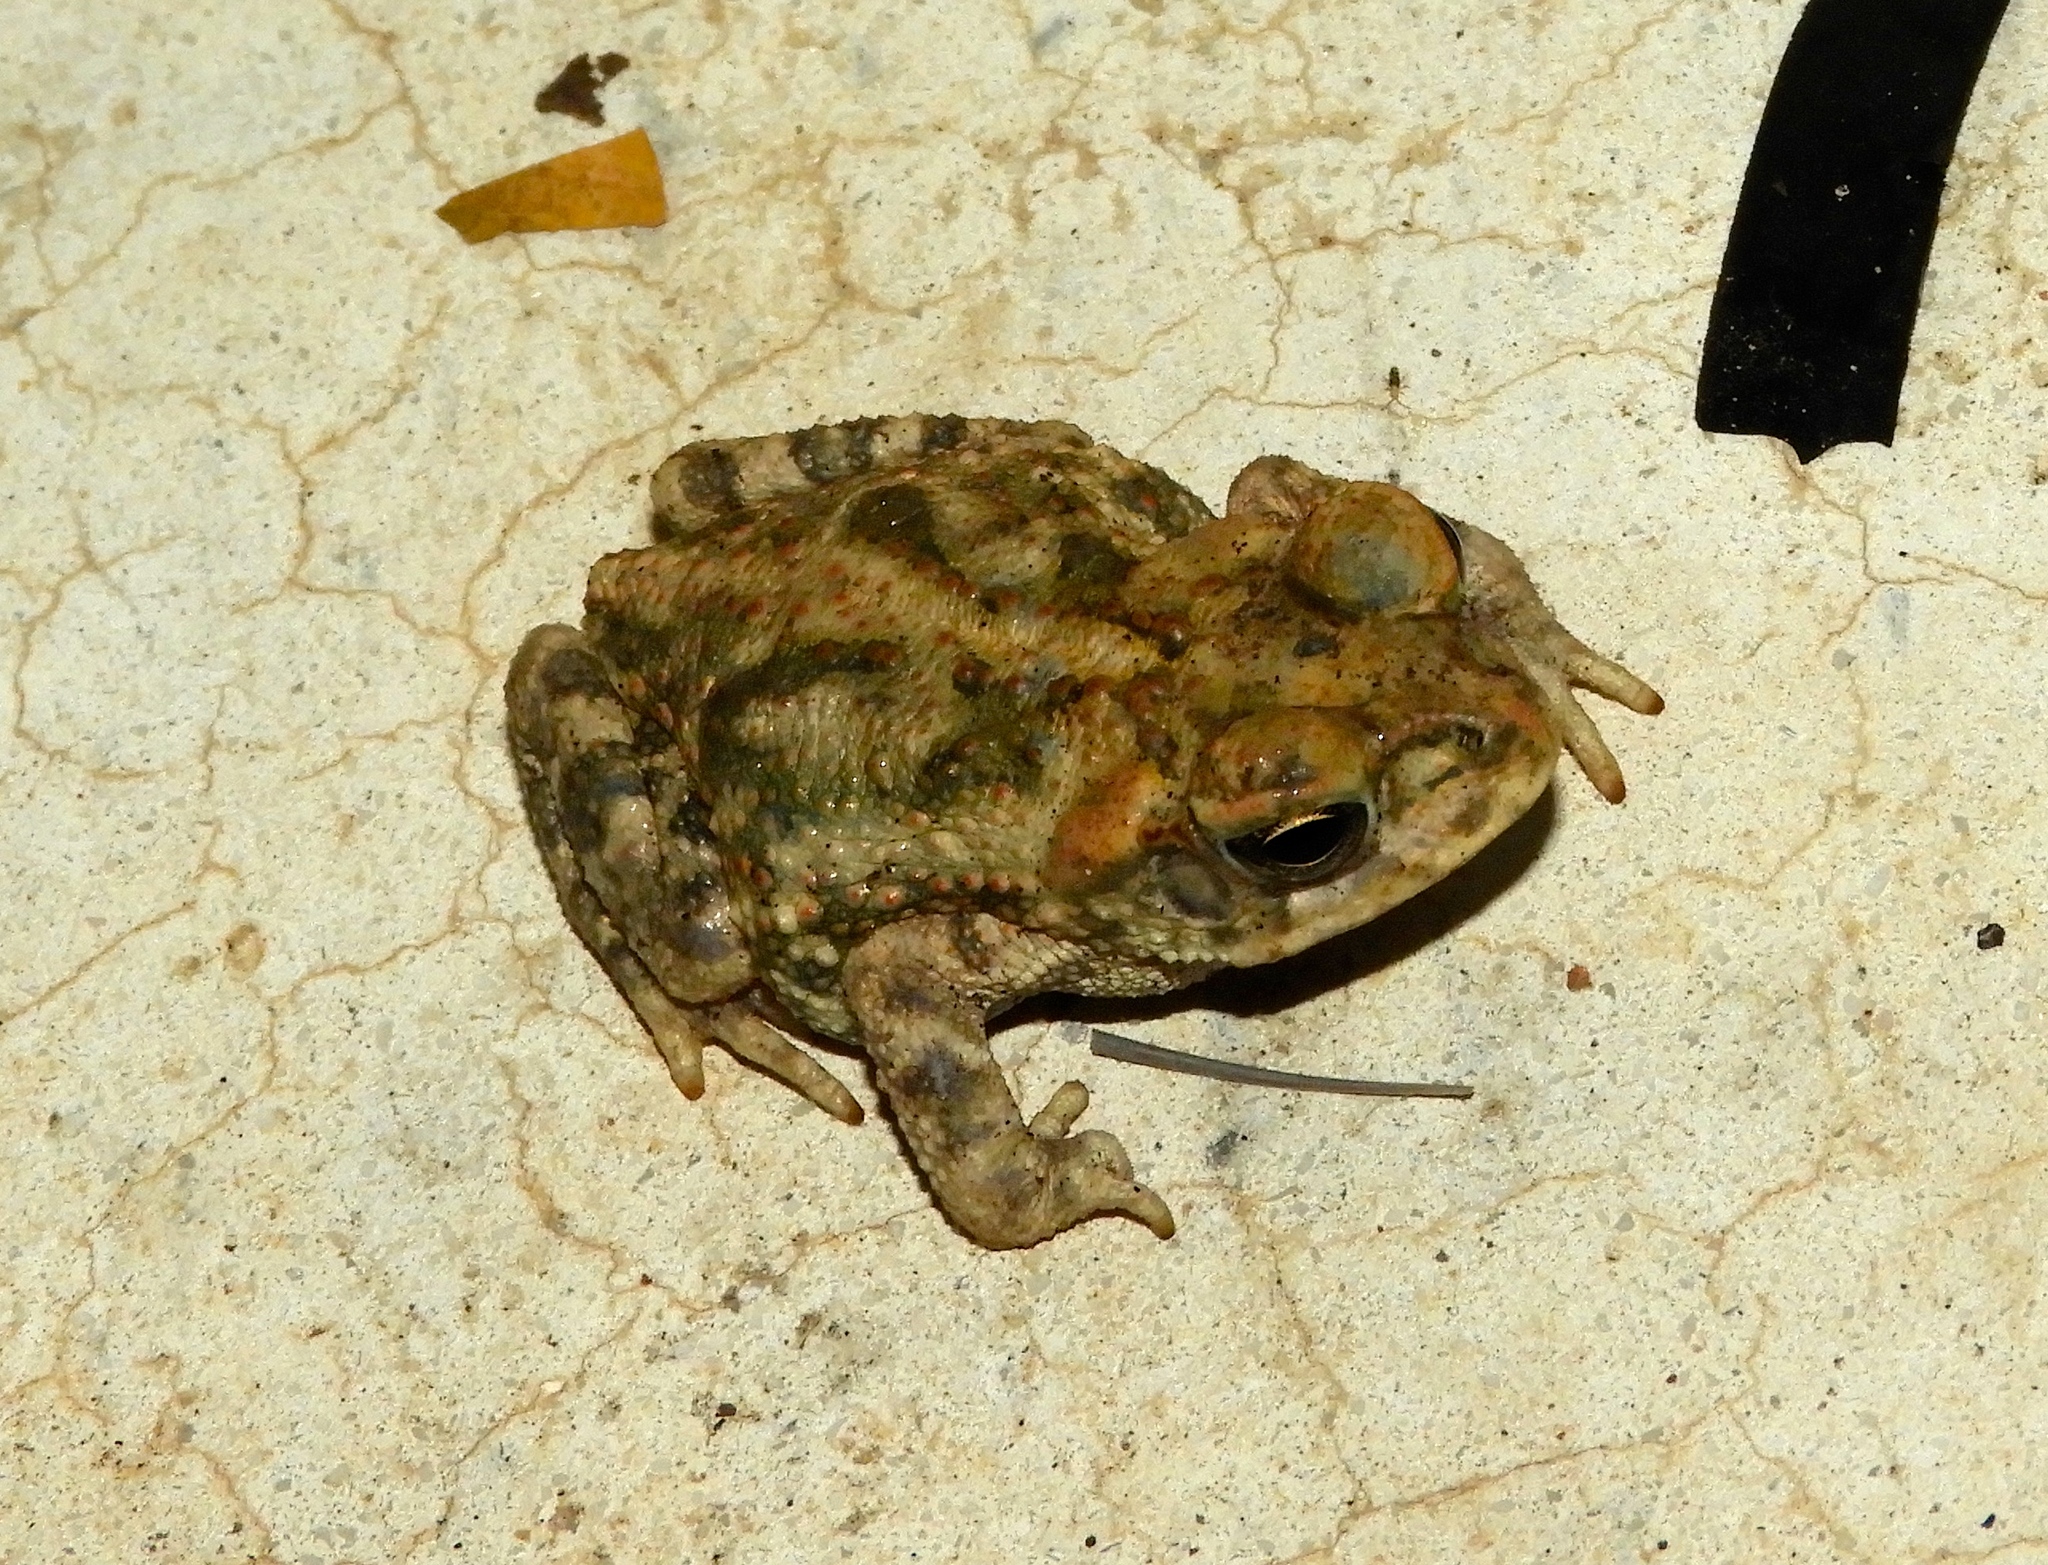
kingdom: Animalia
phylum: Chordata
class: Amphibia
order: Anura
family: Bufonidae
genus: Rhinella
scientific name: Rhinella horribilis
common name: Mesoamerican cane toad
